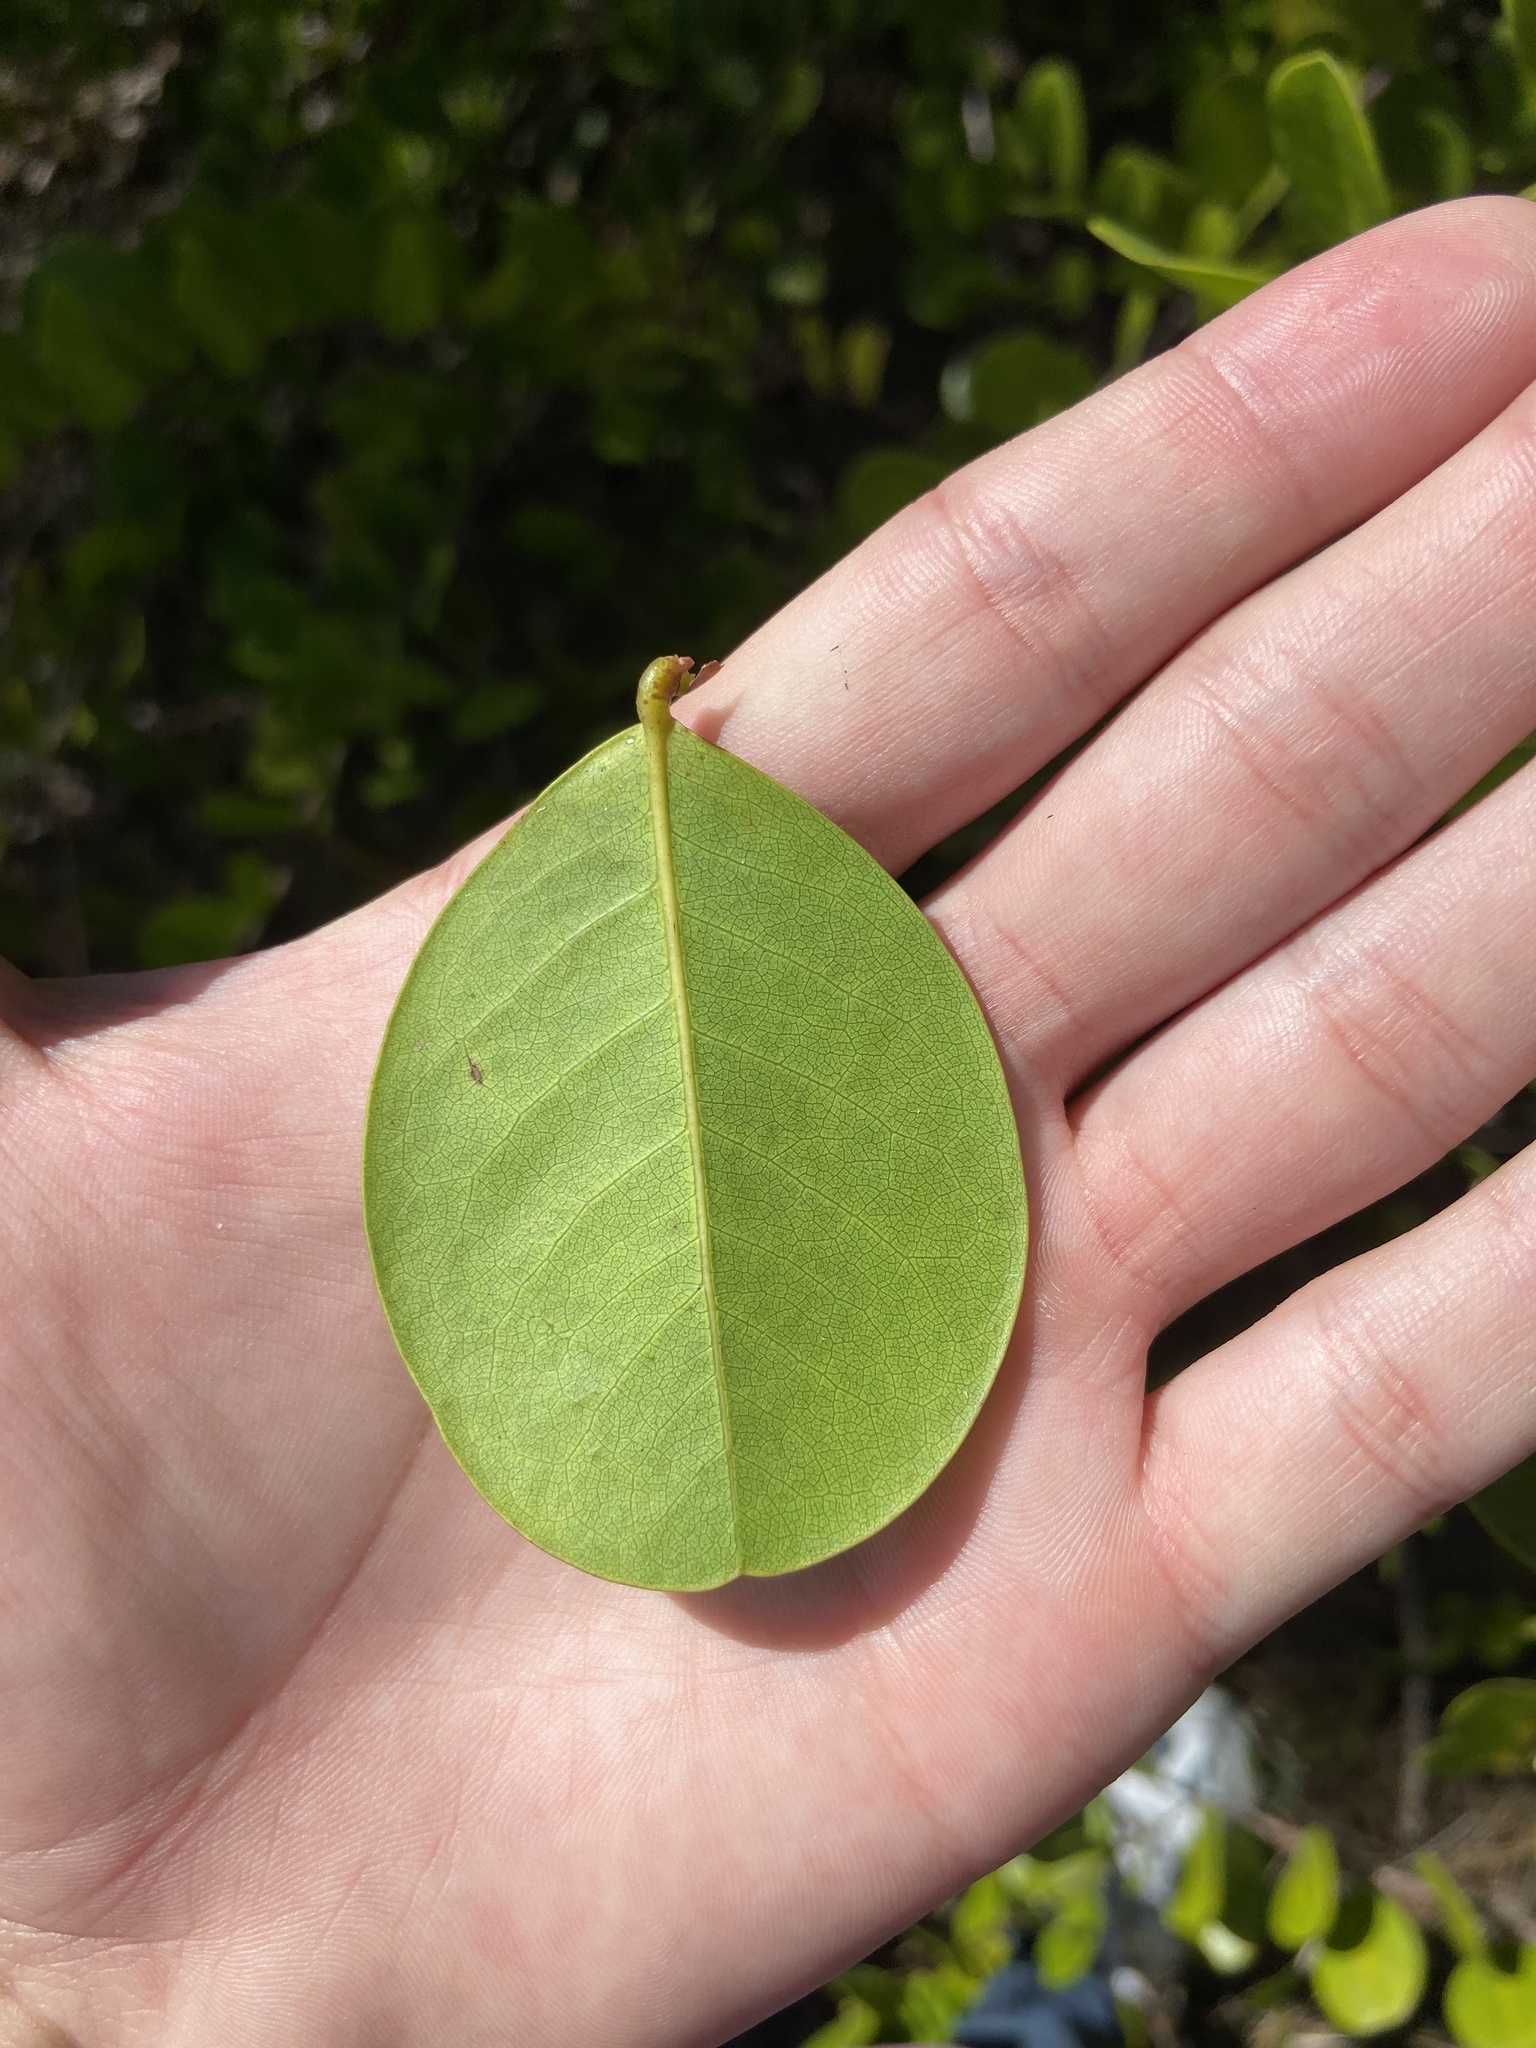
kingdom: Plantae
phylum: Tracheophyta
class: Magnoliopsida
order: Malpighiales
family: Chrysobalanaceae
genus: Chrysobalanus
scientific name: Chrysobalanus icaco
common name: Coco plum
